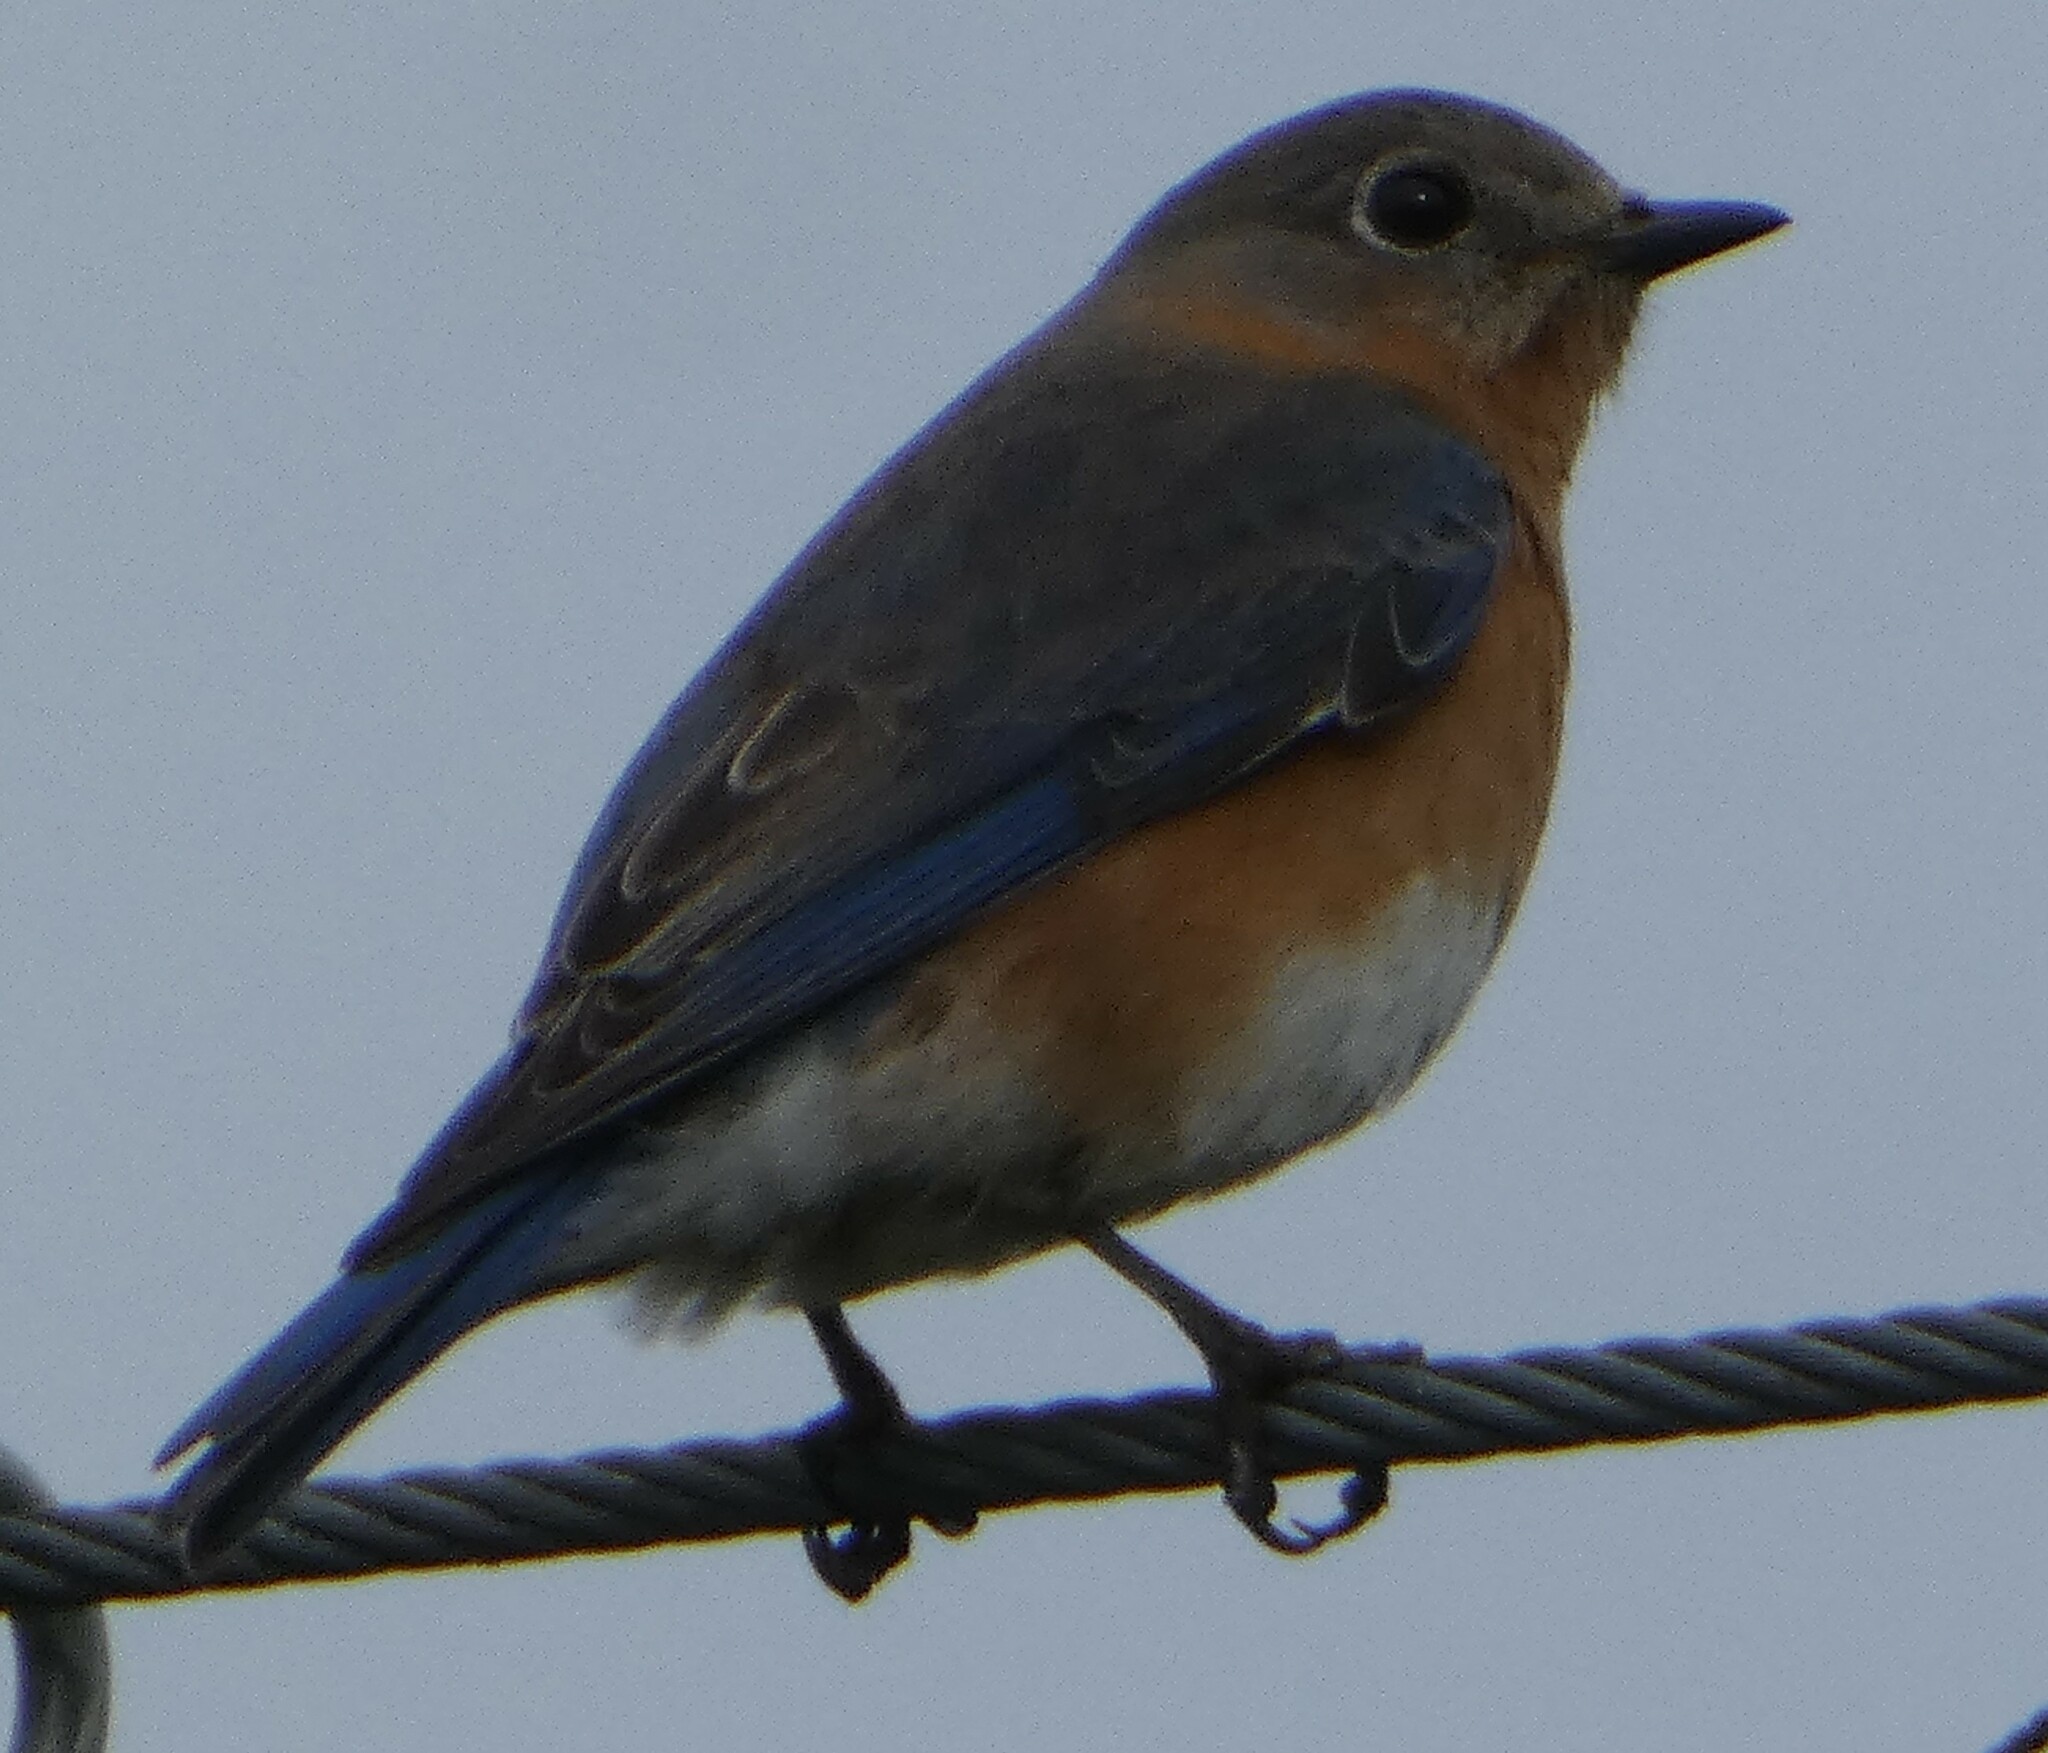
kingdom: Animalia
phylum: Chordata
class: Aves
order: Passeriformes
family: Turdidae
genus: Sialia
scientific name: Sialia sialis
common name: Eastern bluebird
